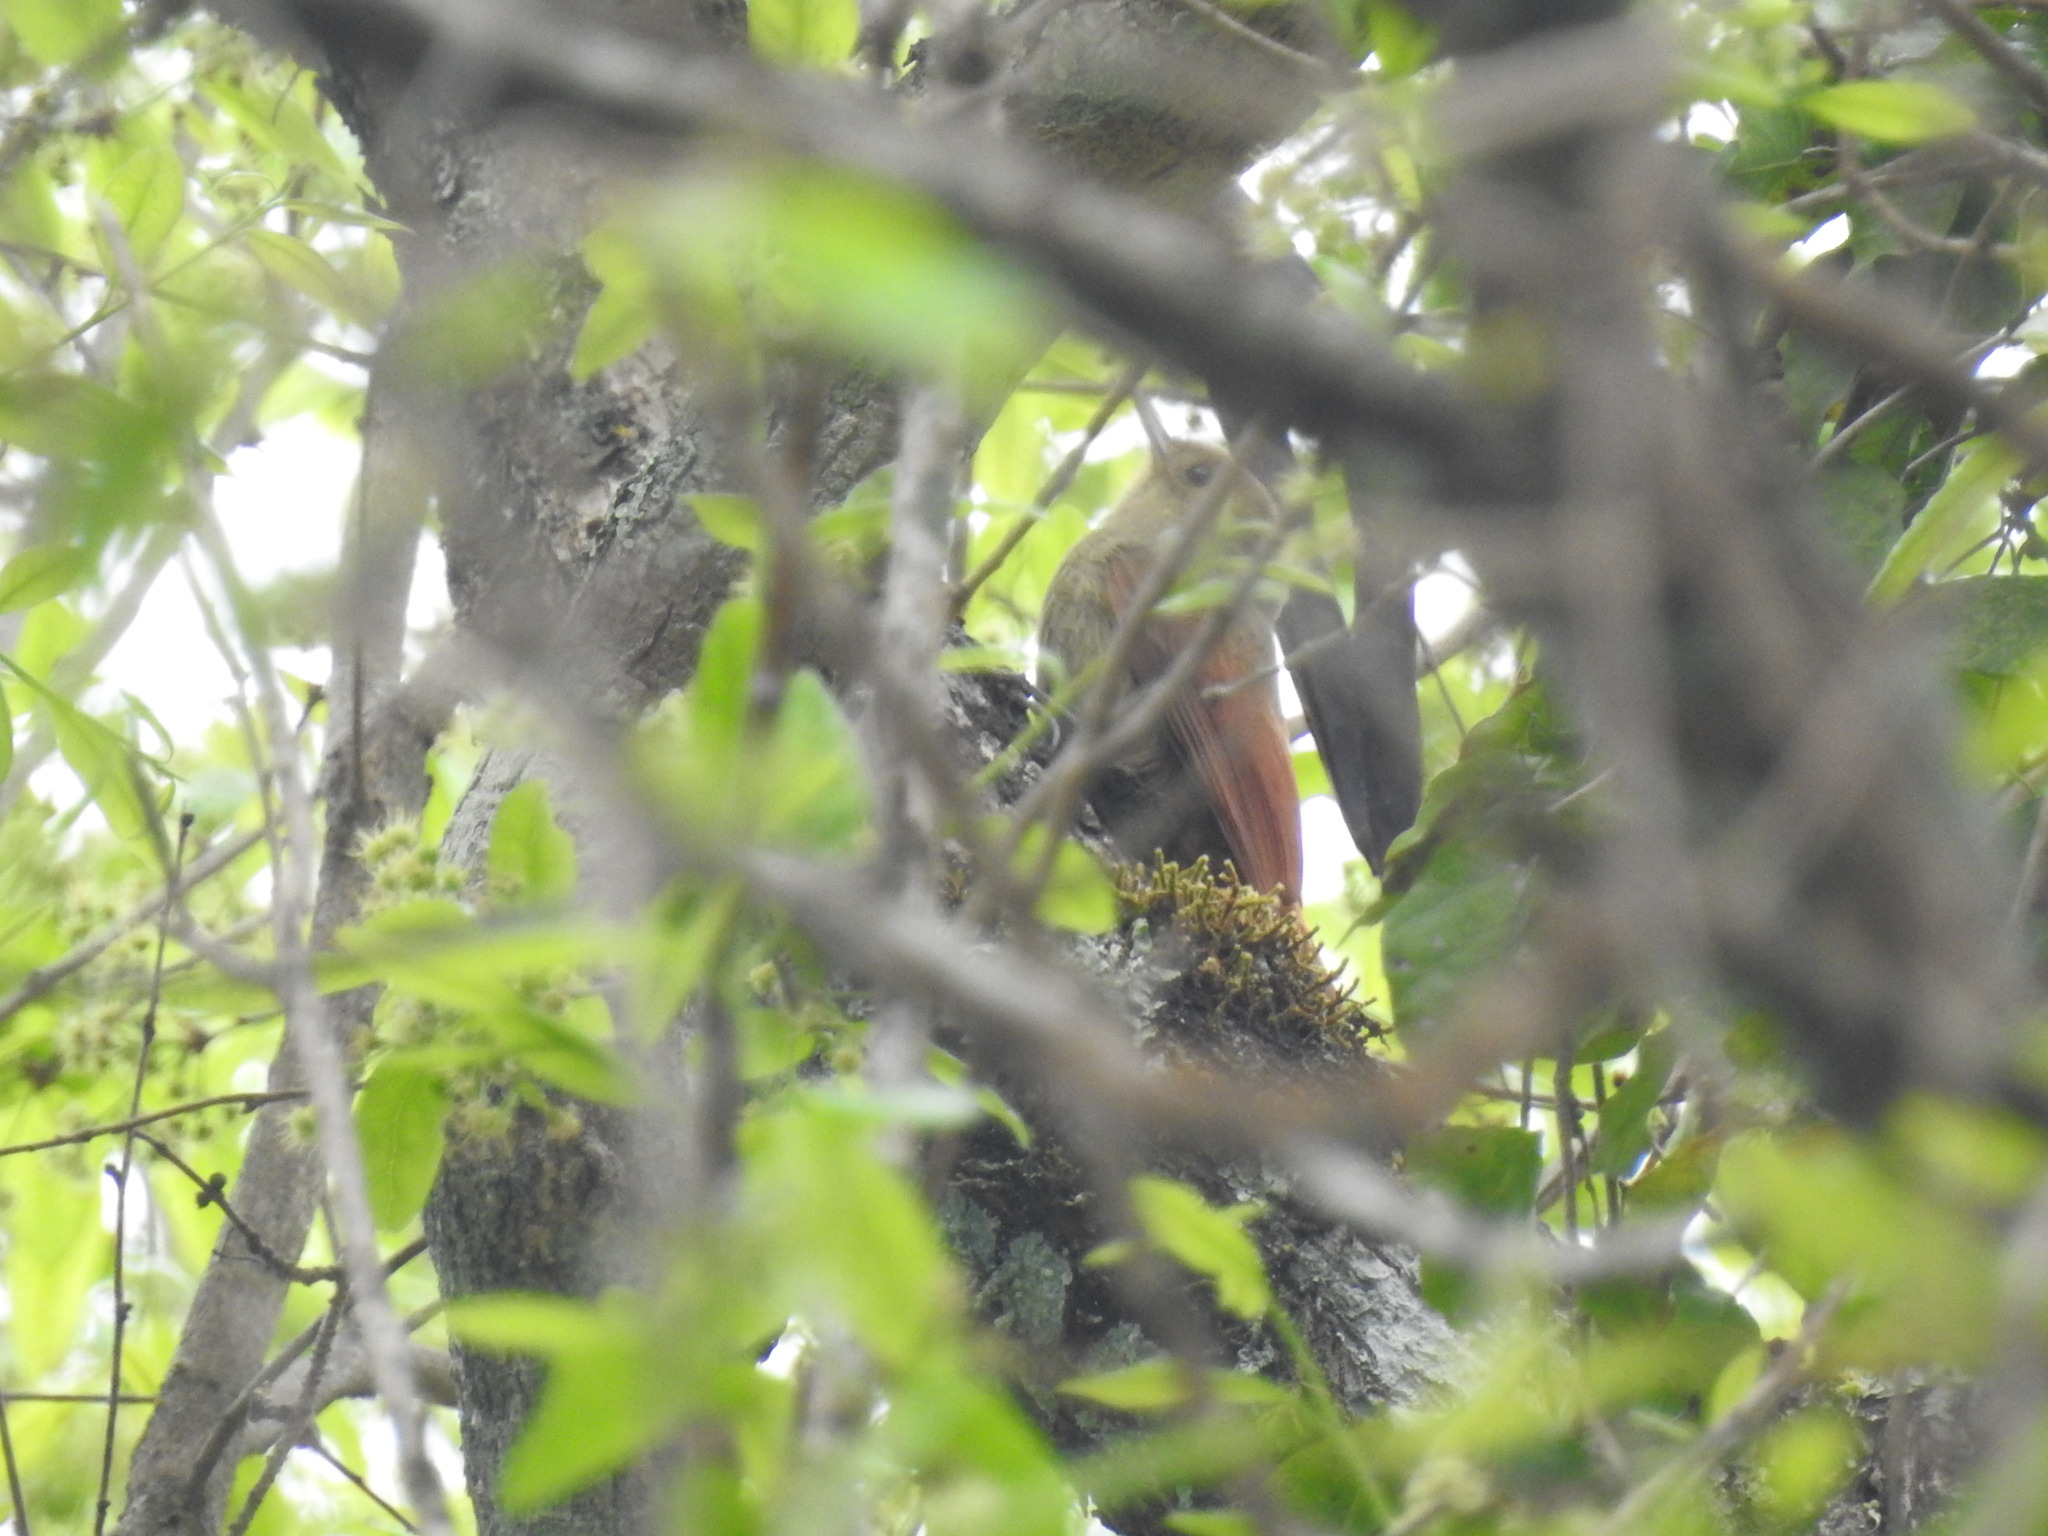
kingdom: Animalia
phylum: Chordata
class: Aves
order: Passeriformes
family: Furnariidae
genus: Sittasomus
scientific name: Sittasomus griseicapillus
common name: Olivaceous woodcreeper
